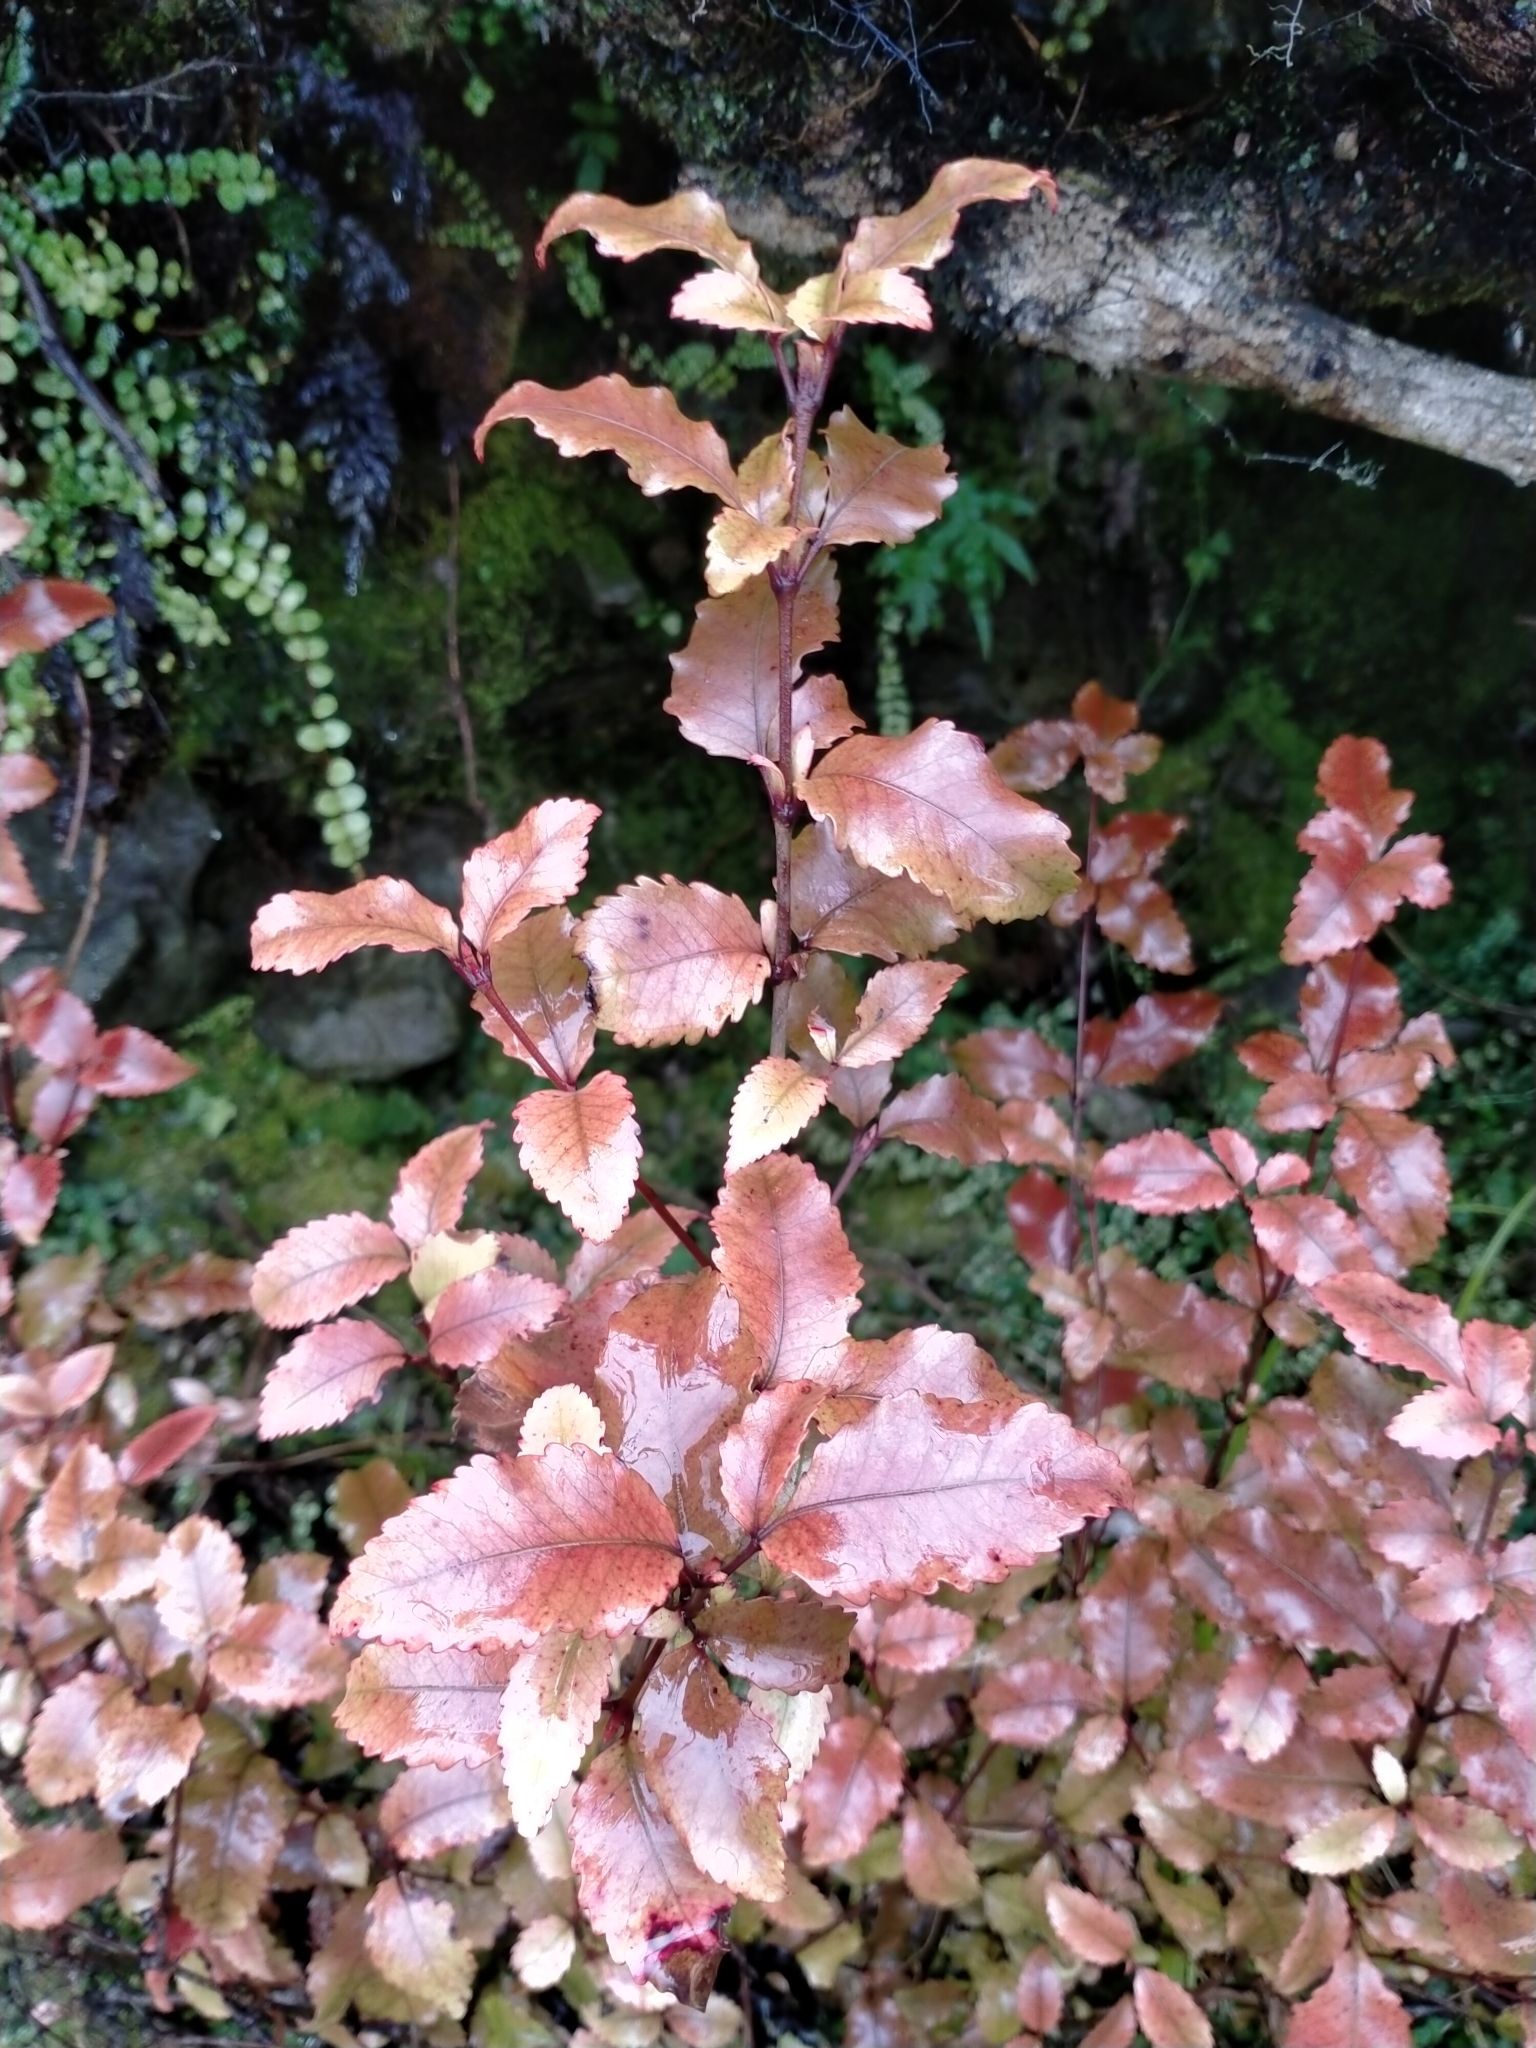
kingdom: Plantae
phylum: Tracheophyta
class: Magnoliopsida
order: Oxalidales
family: Cunoniaceae
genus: Pterophylla
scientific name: Pterophylla racemosa
